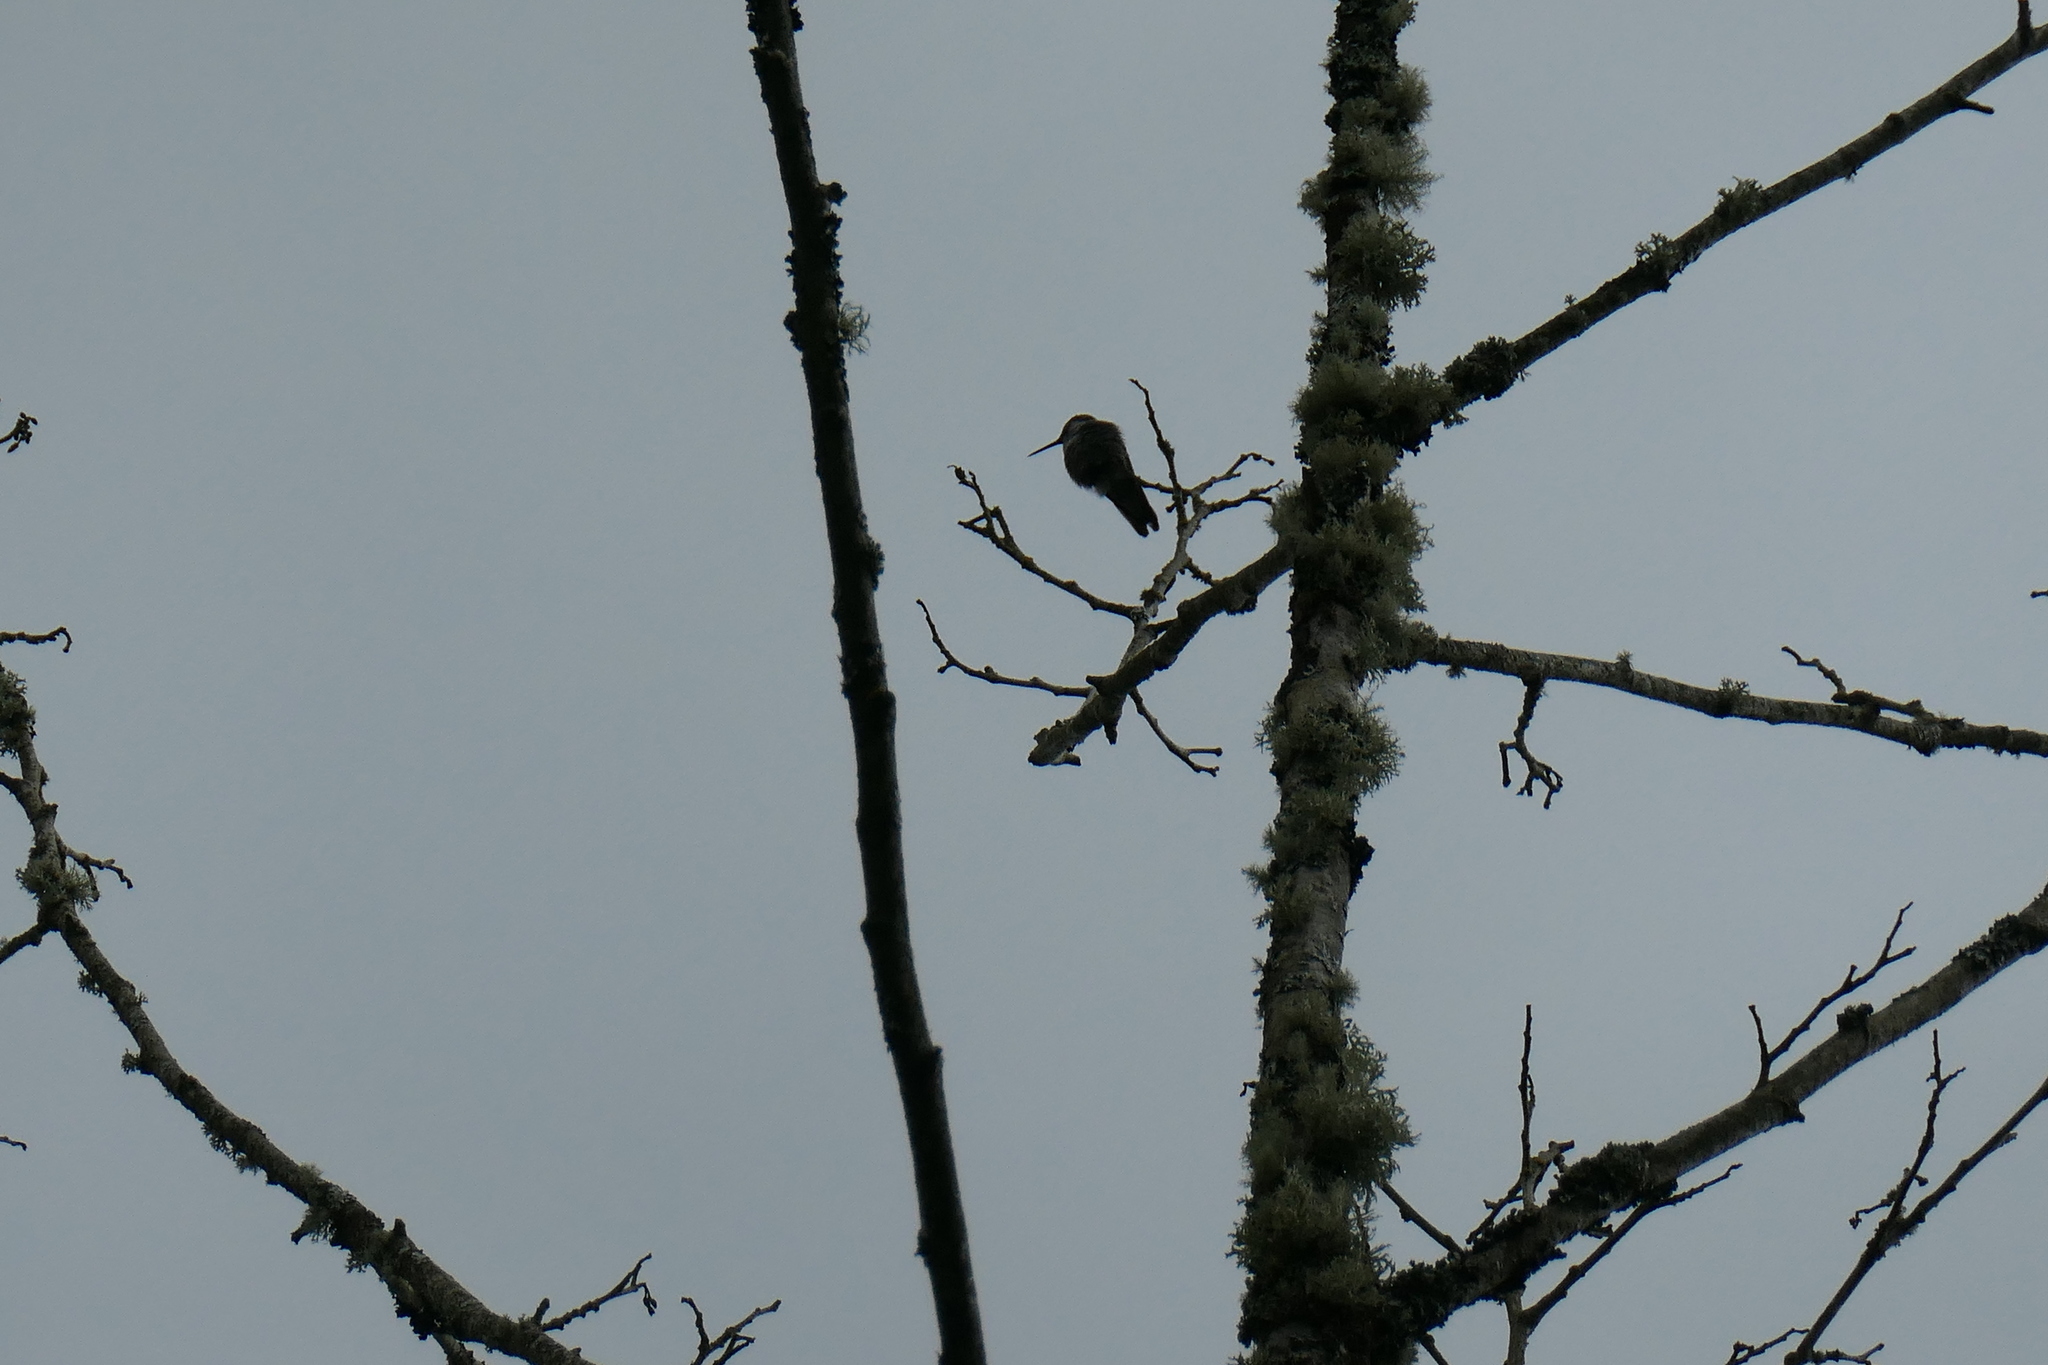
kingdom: Animalia
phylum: Chordata
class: Aves
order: Apodiformes
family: Trochilidae
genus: Calypte
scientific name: Calypte anna
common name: Anna's hummingbird
